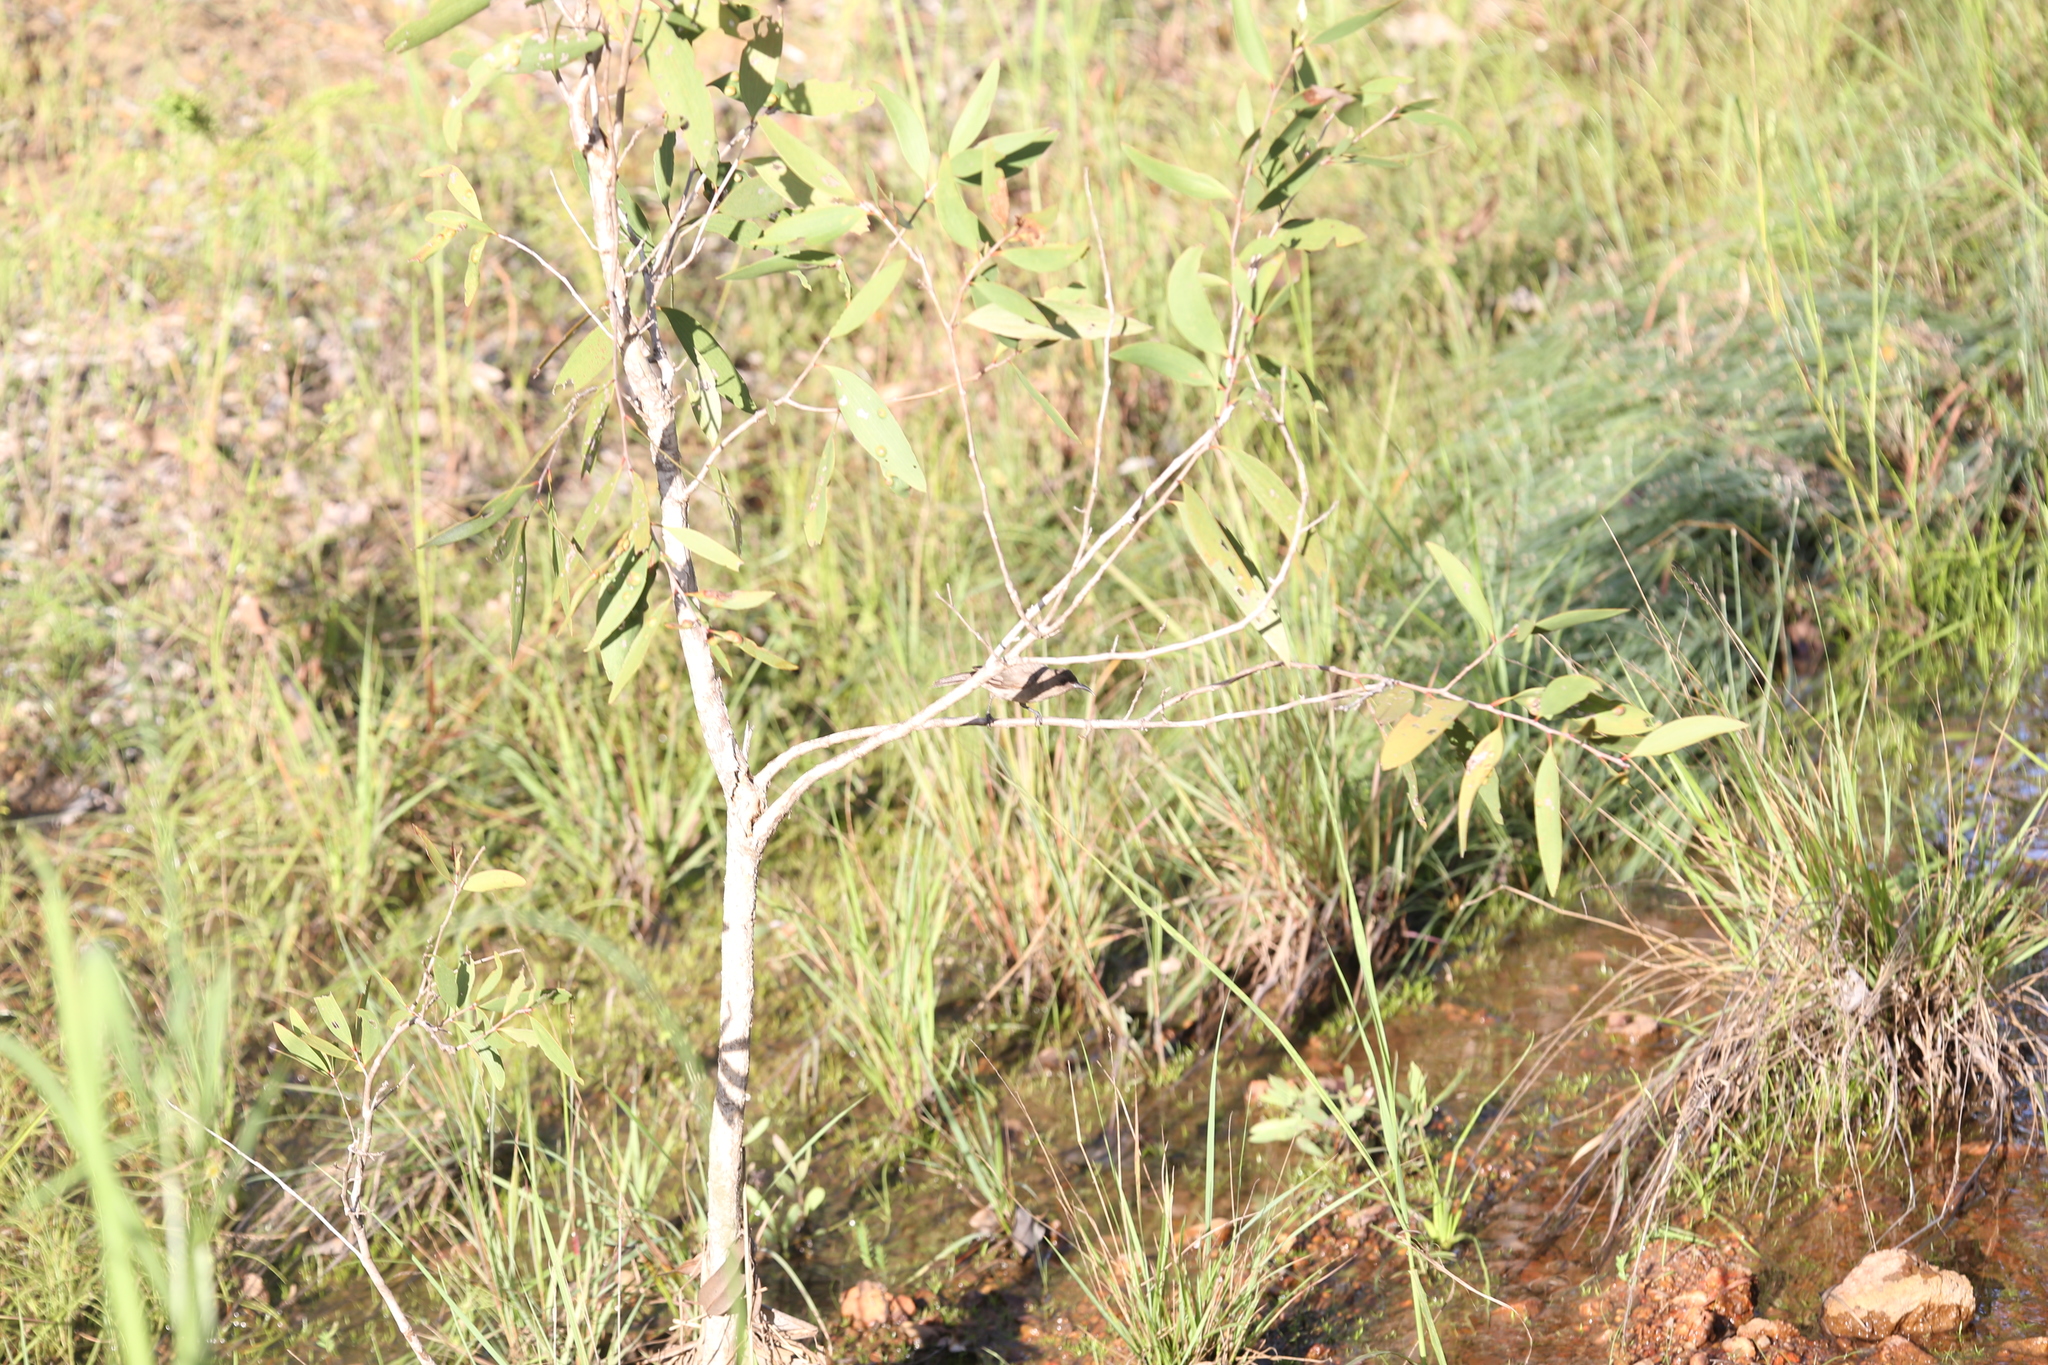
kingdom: Animalia
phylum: Chordata
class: Aves
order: Passeriformes
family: Meliphagidae
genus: Myzomela
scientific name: Myzomela erythrocephala
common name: Red-headed myzomela
